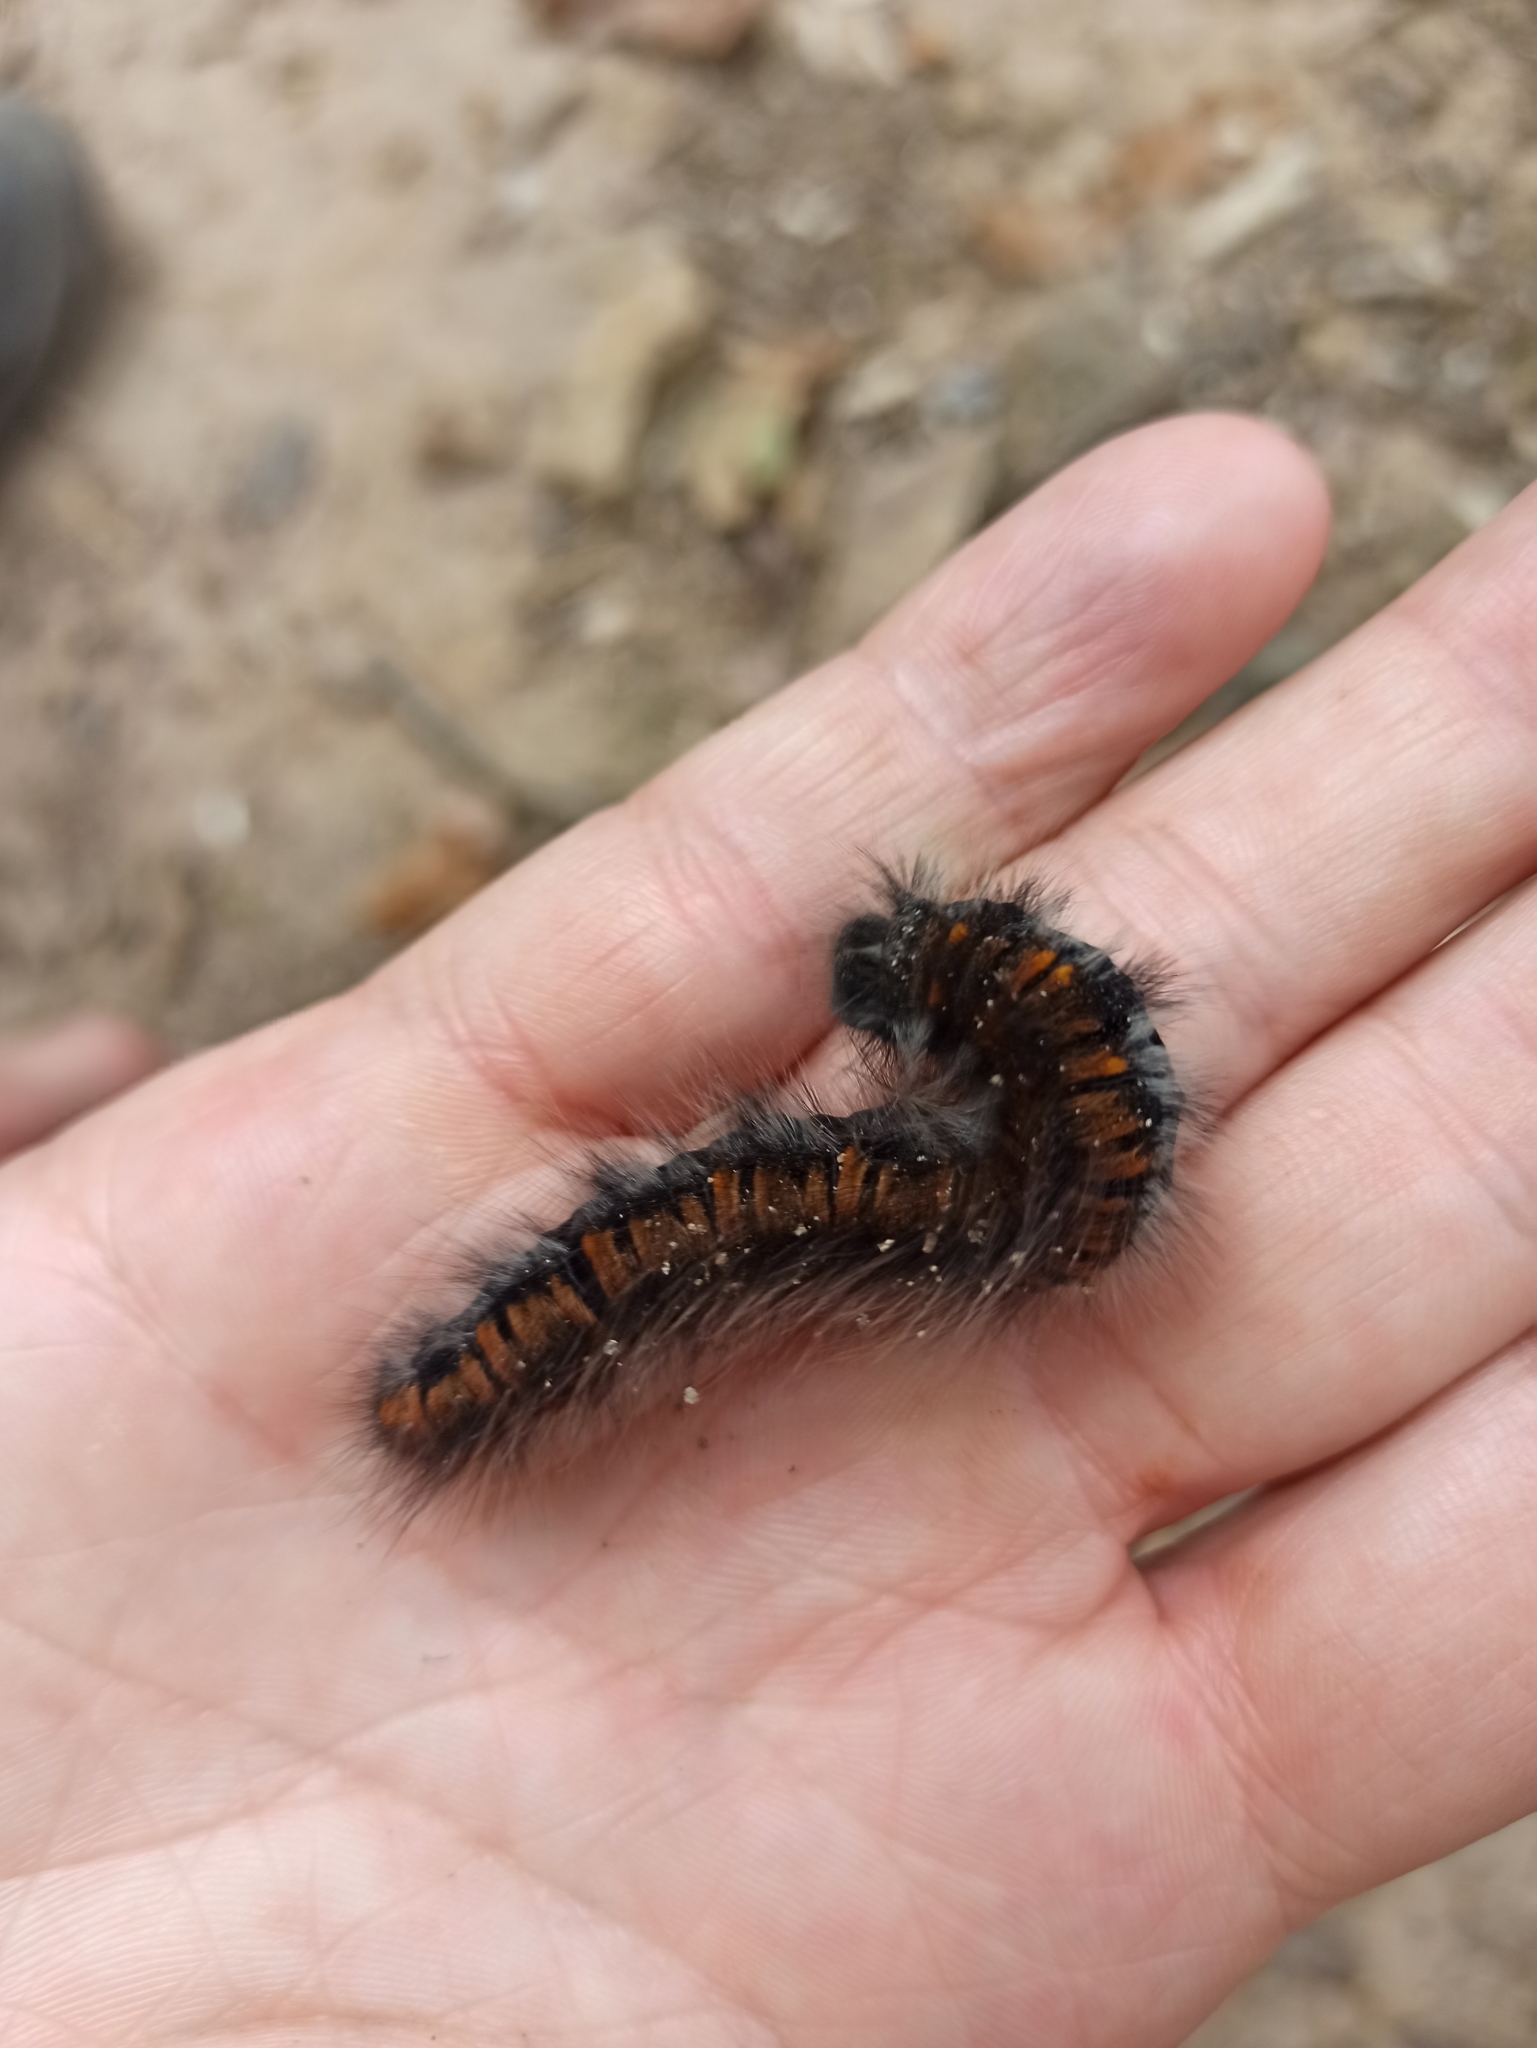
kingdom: Animalia
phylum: Arthropoda
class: Insecta
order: Lepidoptera
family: Lasiocampidae
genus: Macrothylacia
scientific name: Macrothylacia rubi
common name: Fox moth
